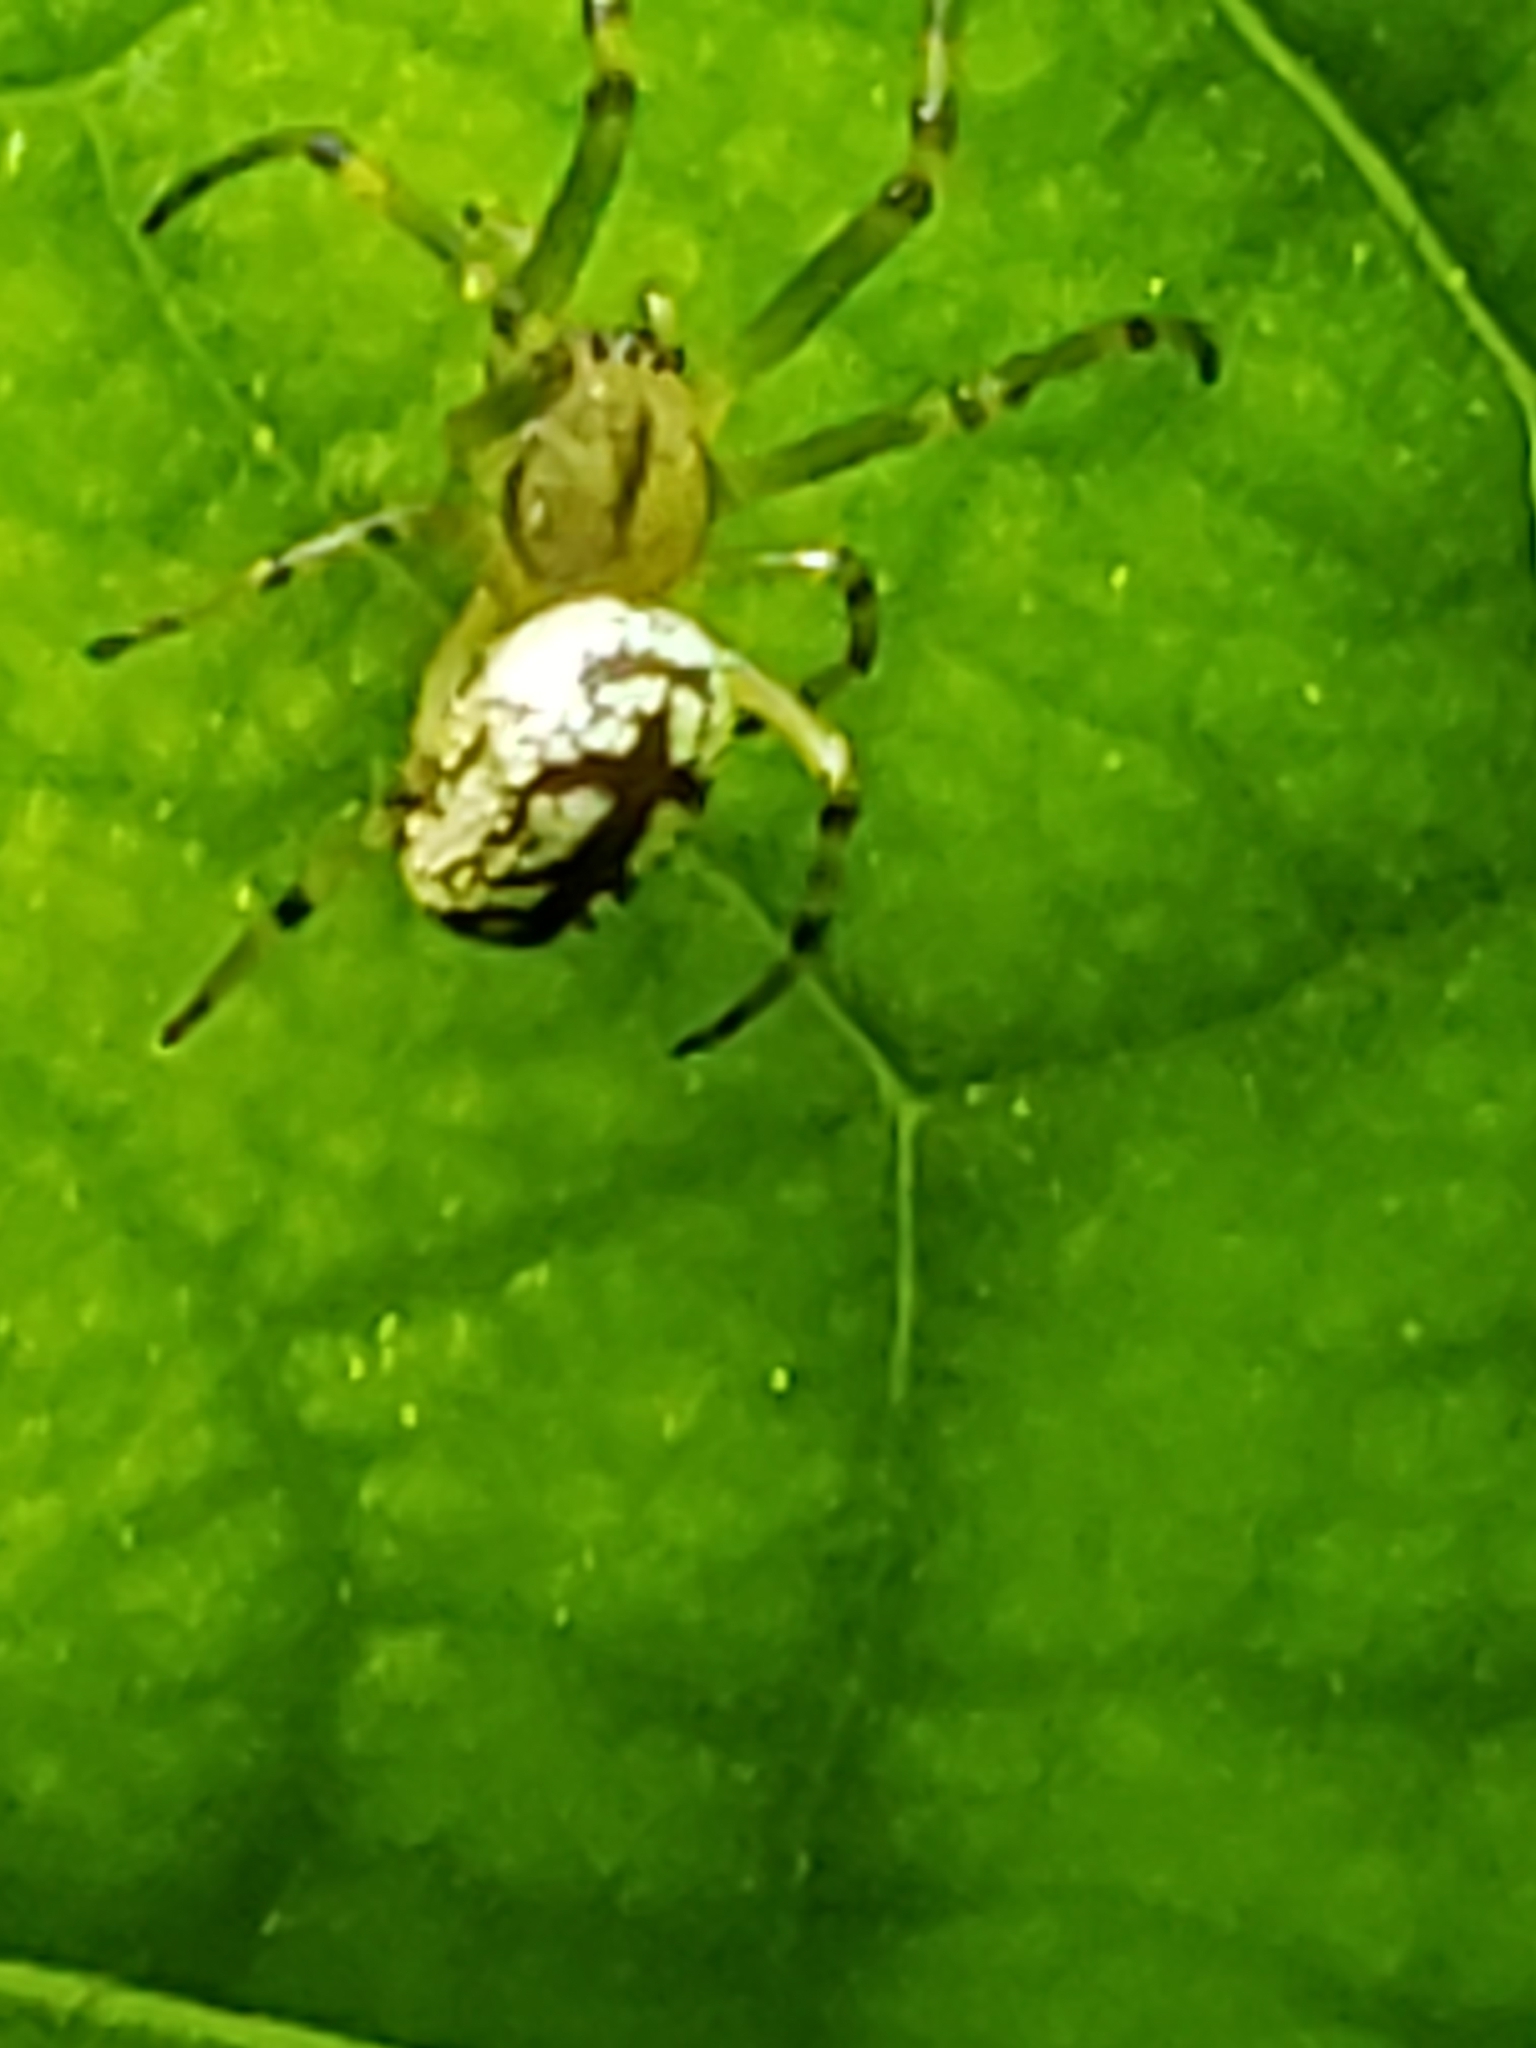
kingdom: Animalia
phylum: Arthropoda
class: Arachnida
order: Araneae
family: Tetragnathidae
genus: Leucauge
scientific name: Leucauge venusta
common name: Longjawed orb weavers
